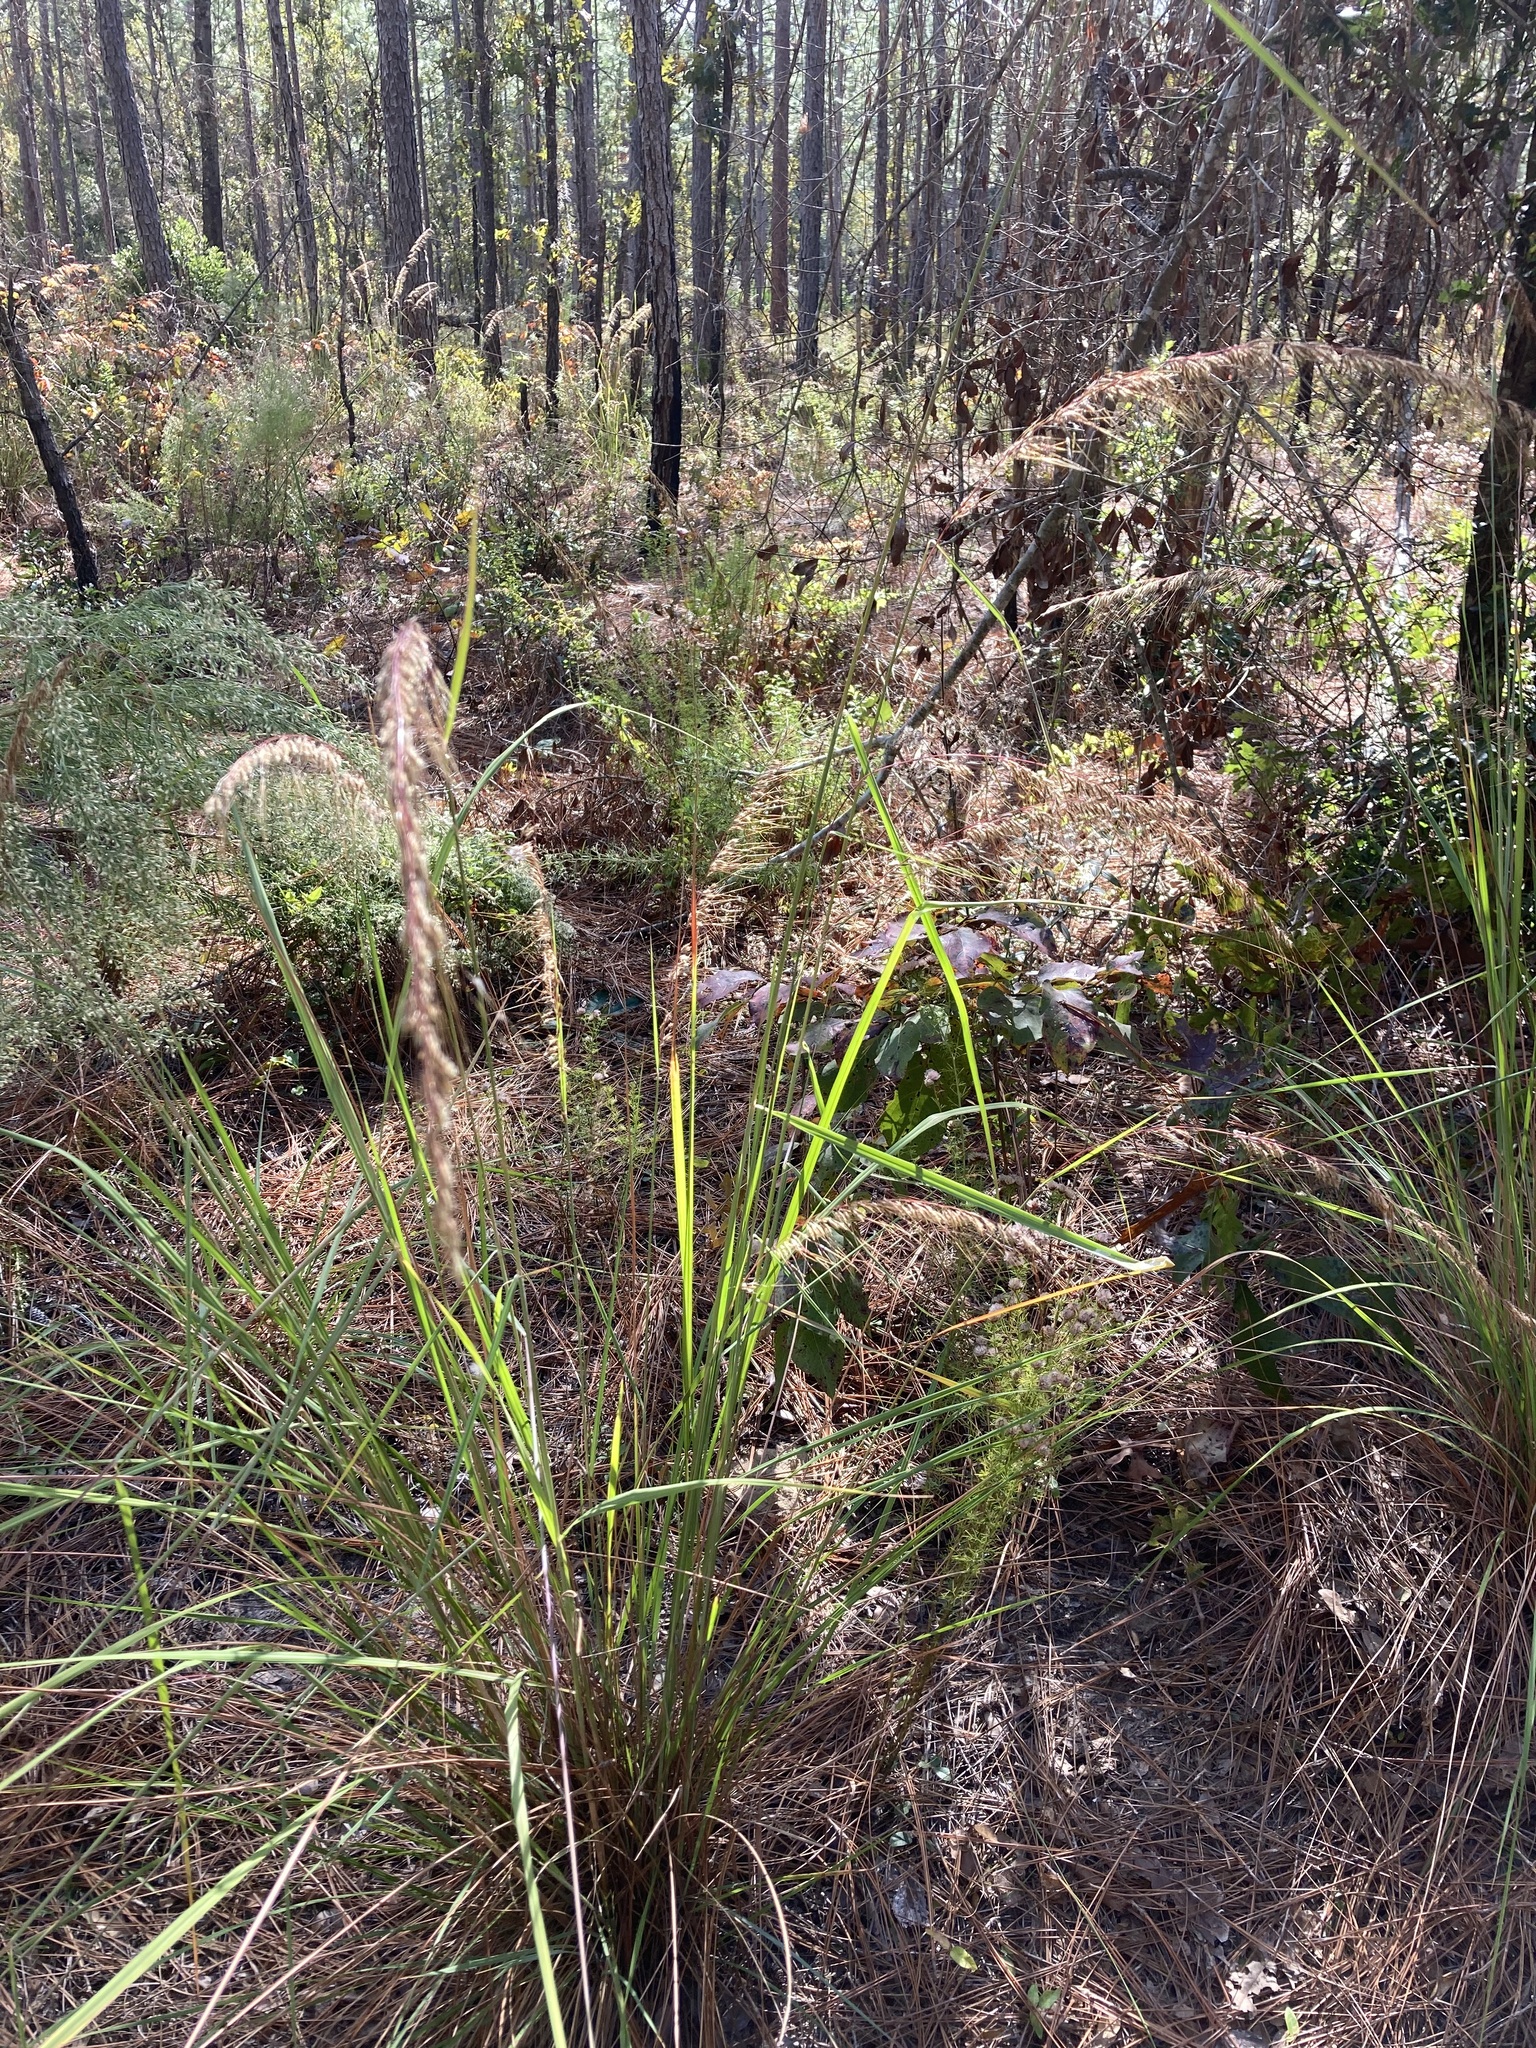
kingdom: Plantae
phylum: Tracheophyta
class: Liliopsida
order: Poales
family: Poaceae
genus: Sorghastrum
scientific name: Sorghastrum secundum
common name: Lopsided indian grass
